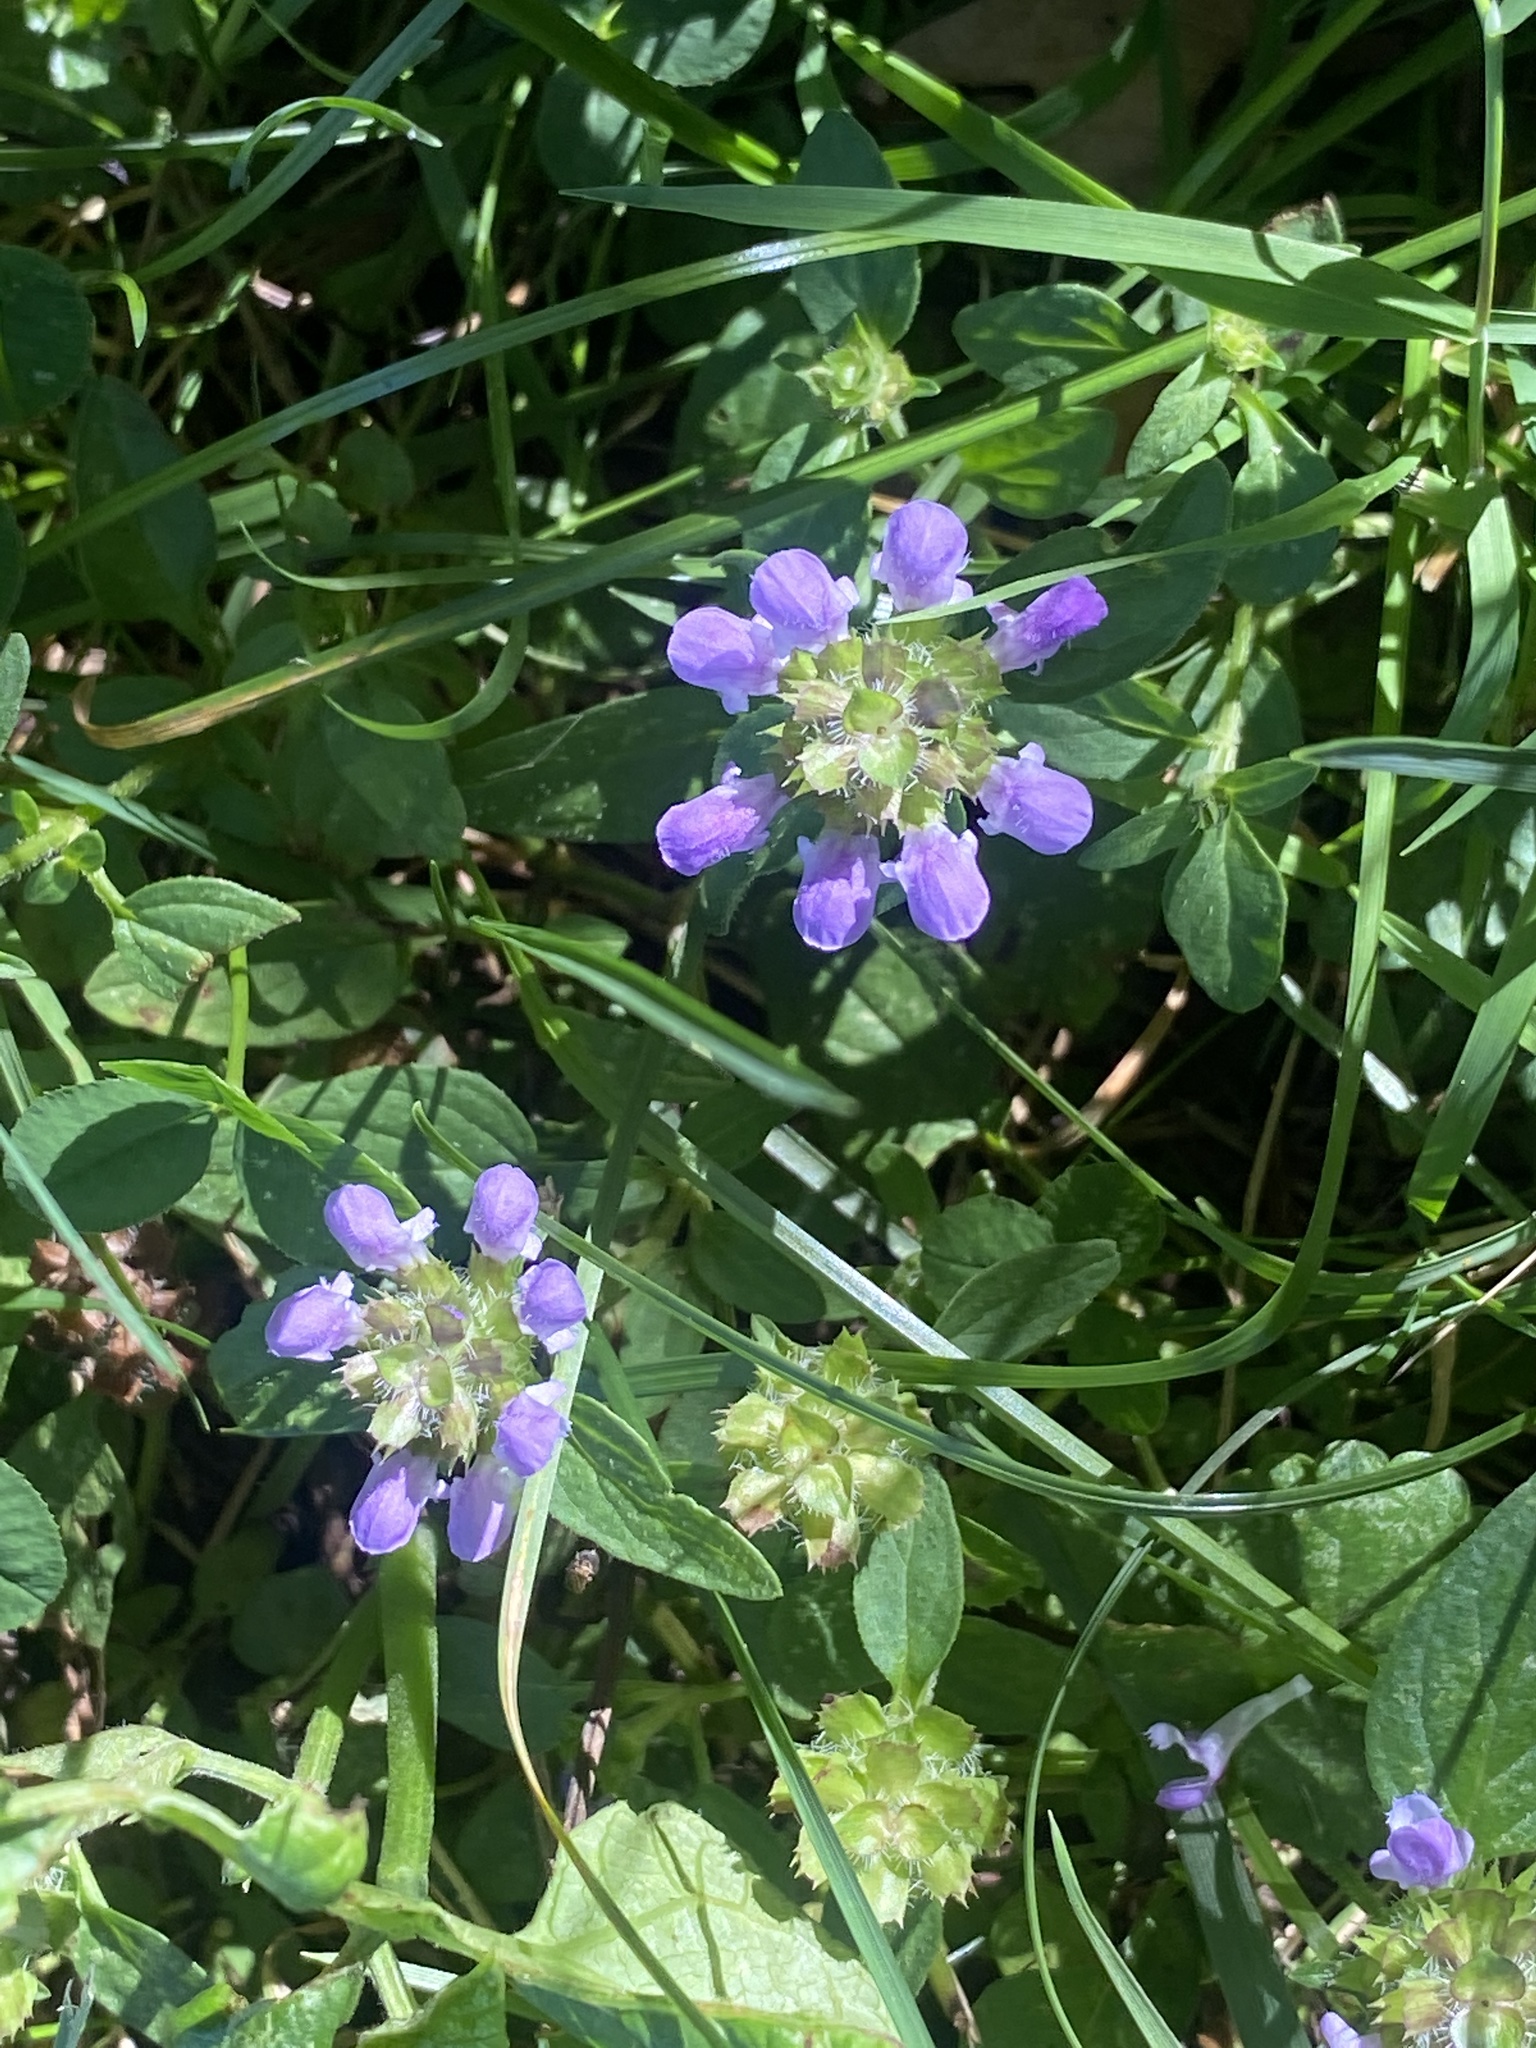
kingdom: Plantae
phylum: Tracheophyta
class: Magnoliopsida
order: Lamiales
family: Lamiaceae
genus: Prunella
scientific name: Prunella vulgaris
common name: Heal-all
